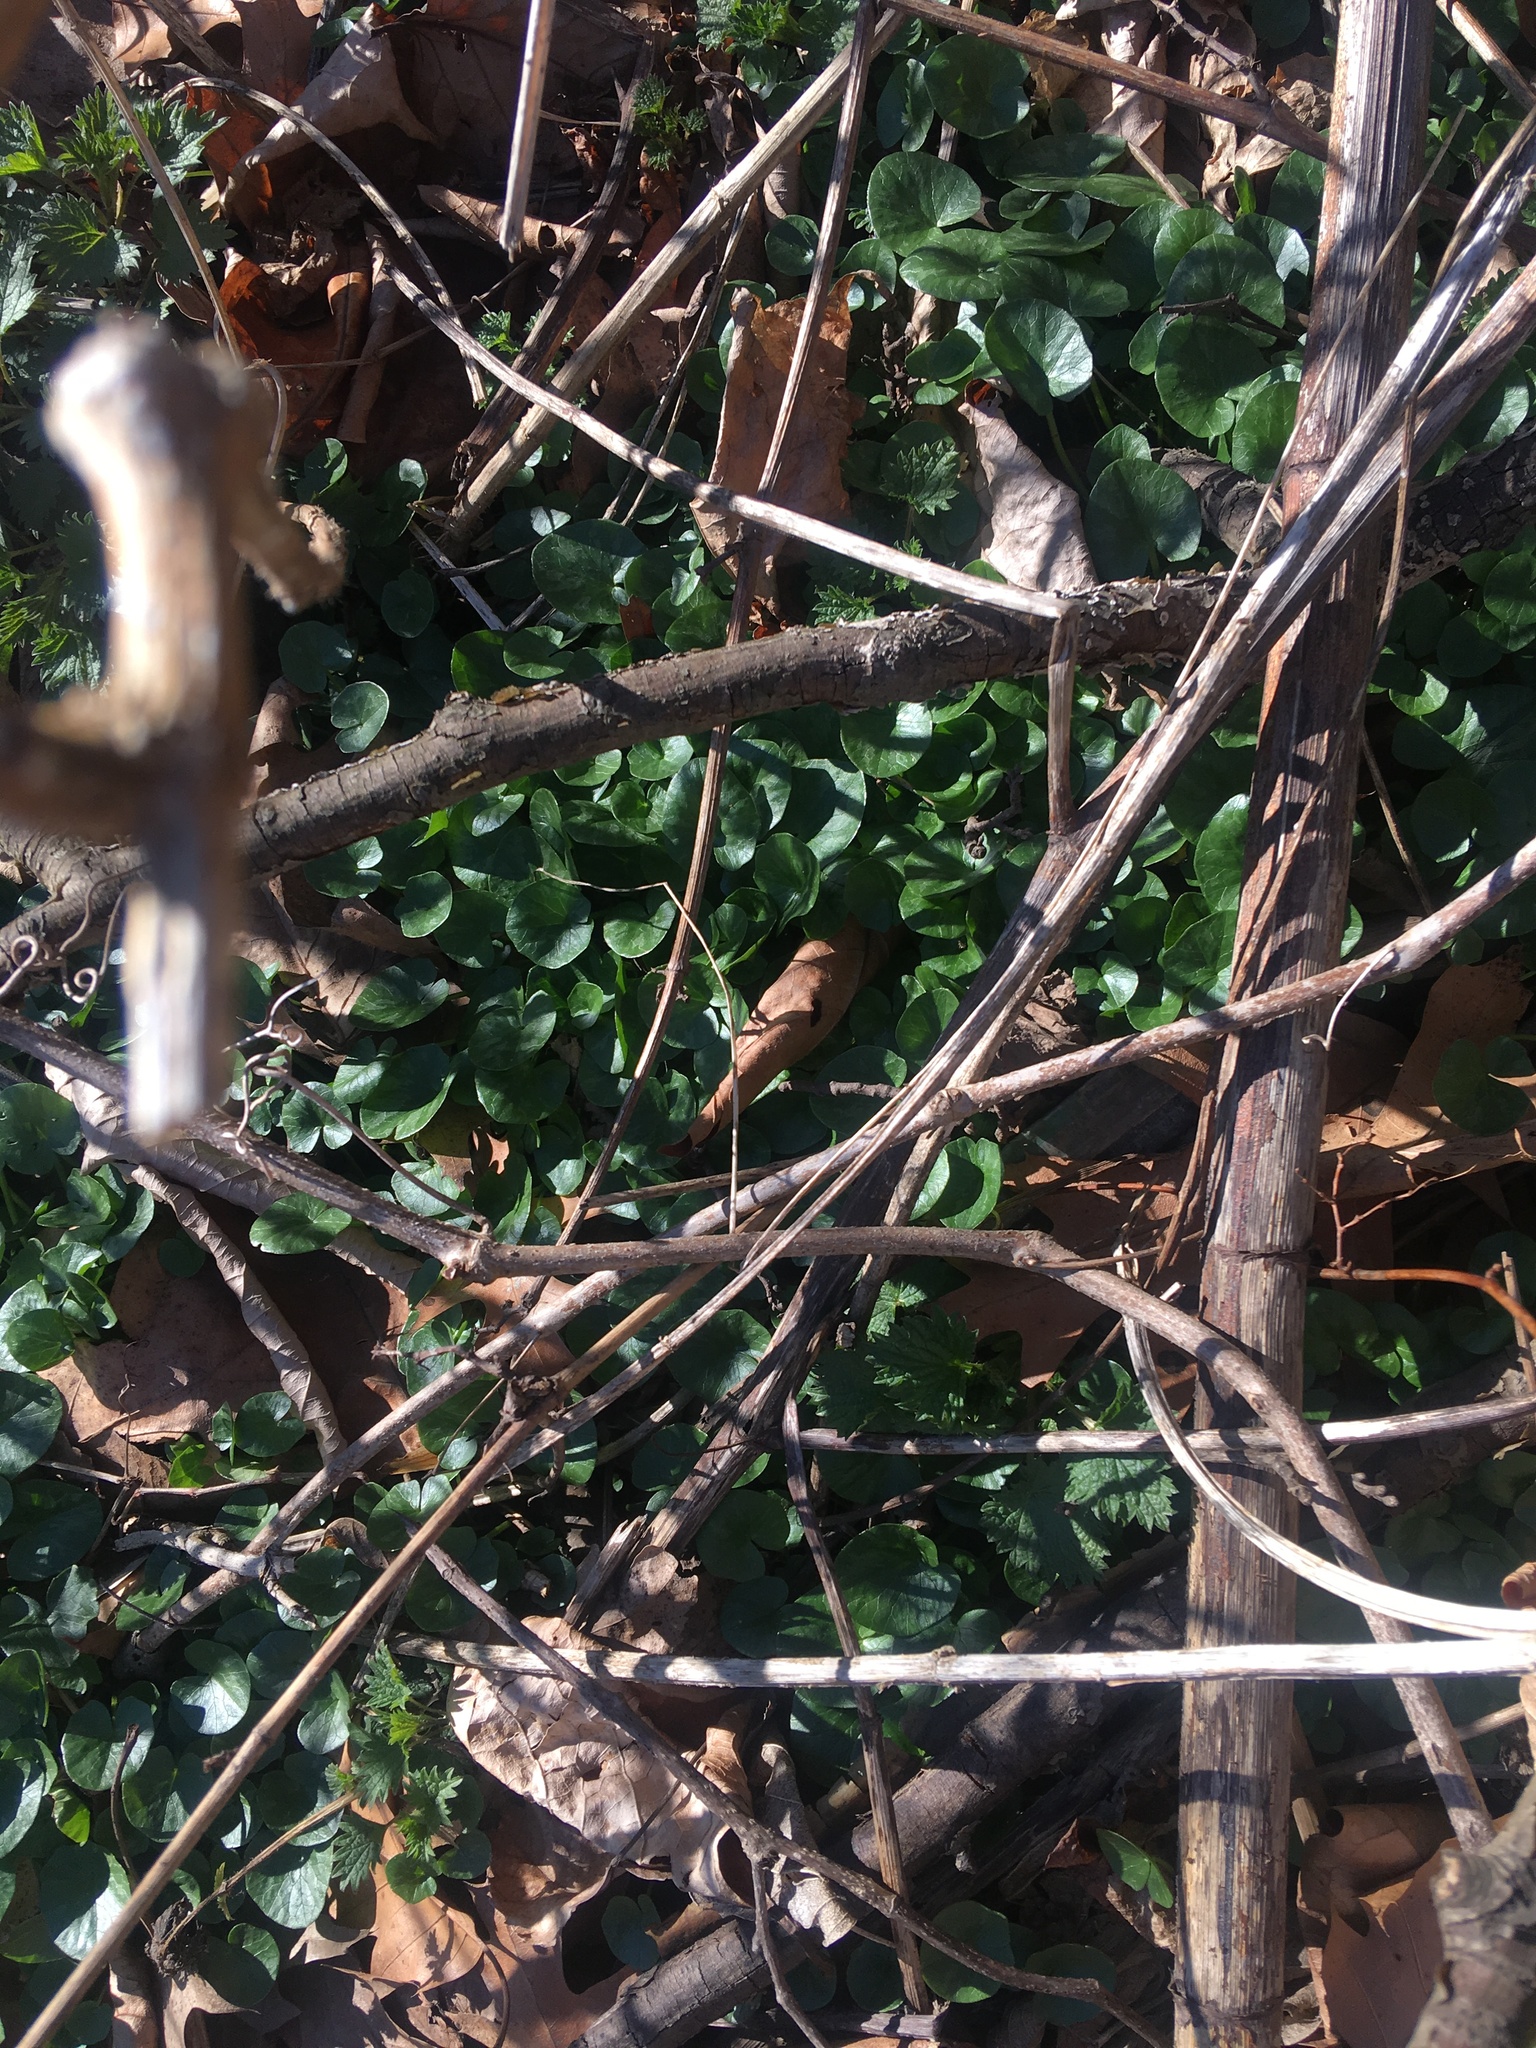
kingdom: Plantae
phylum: Tracheophyta
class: Magnoliopsida
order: Ranunculales
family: Ranunculaceae
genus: Ficaria
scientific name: Ficaria verna
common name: Lesser celandine
